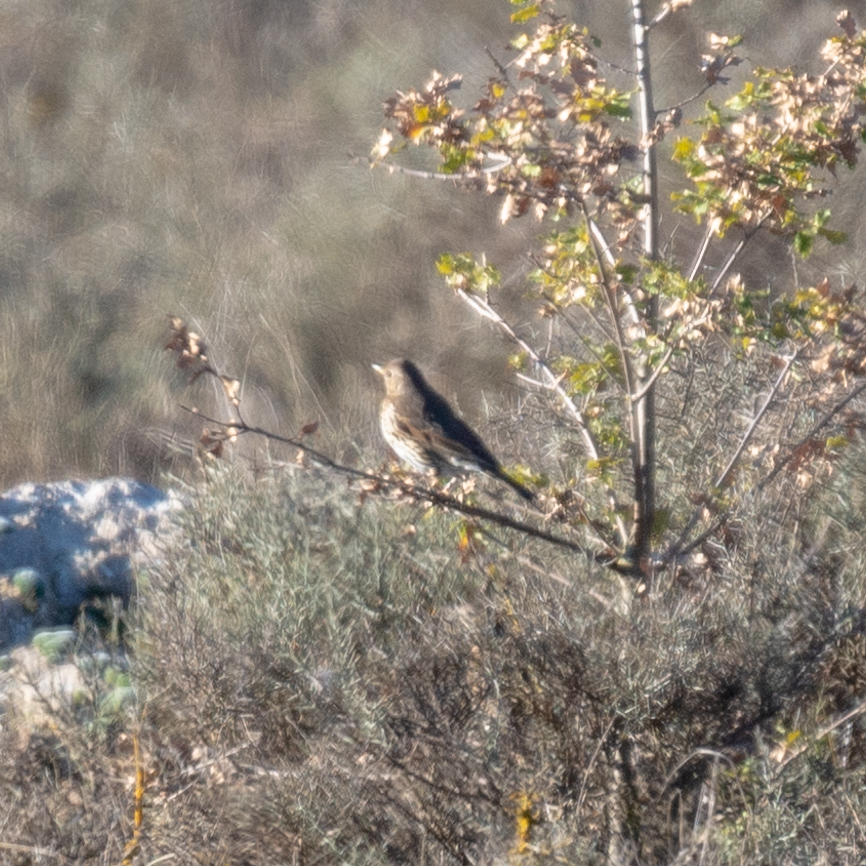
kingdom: Animalia
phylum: Chordata
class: Aves
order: Passeriformes
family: Turdidae
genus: Turdus
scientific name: Turdus philomelos
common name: Song thrush
